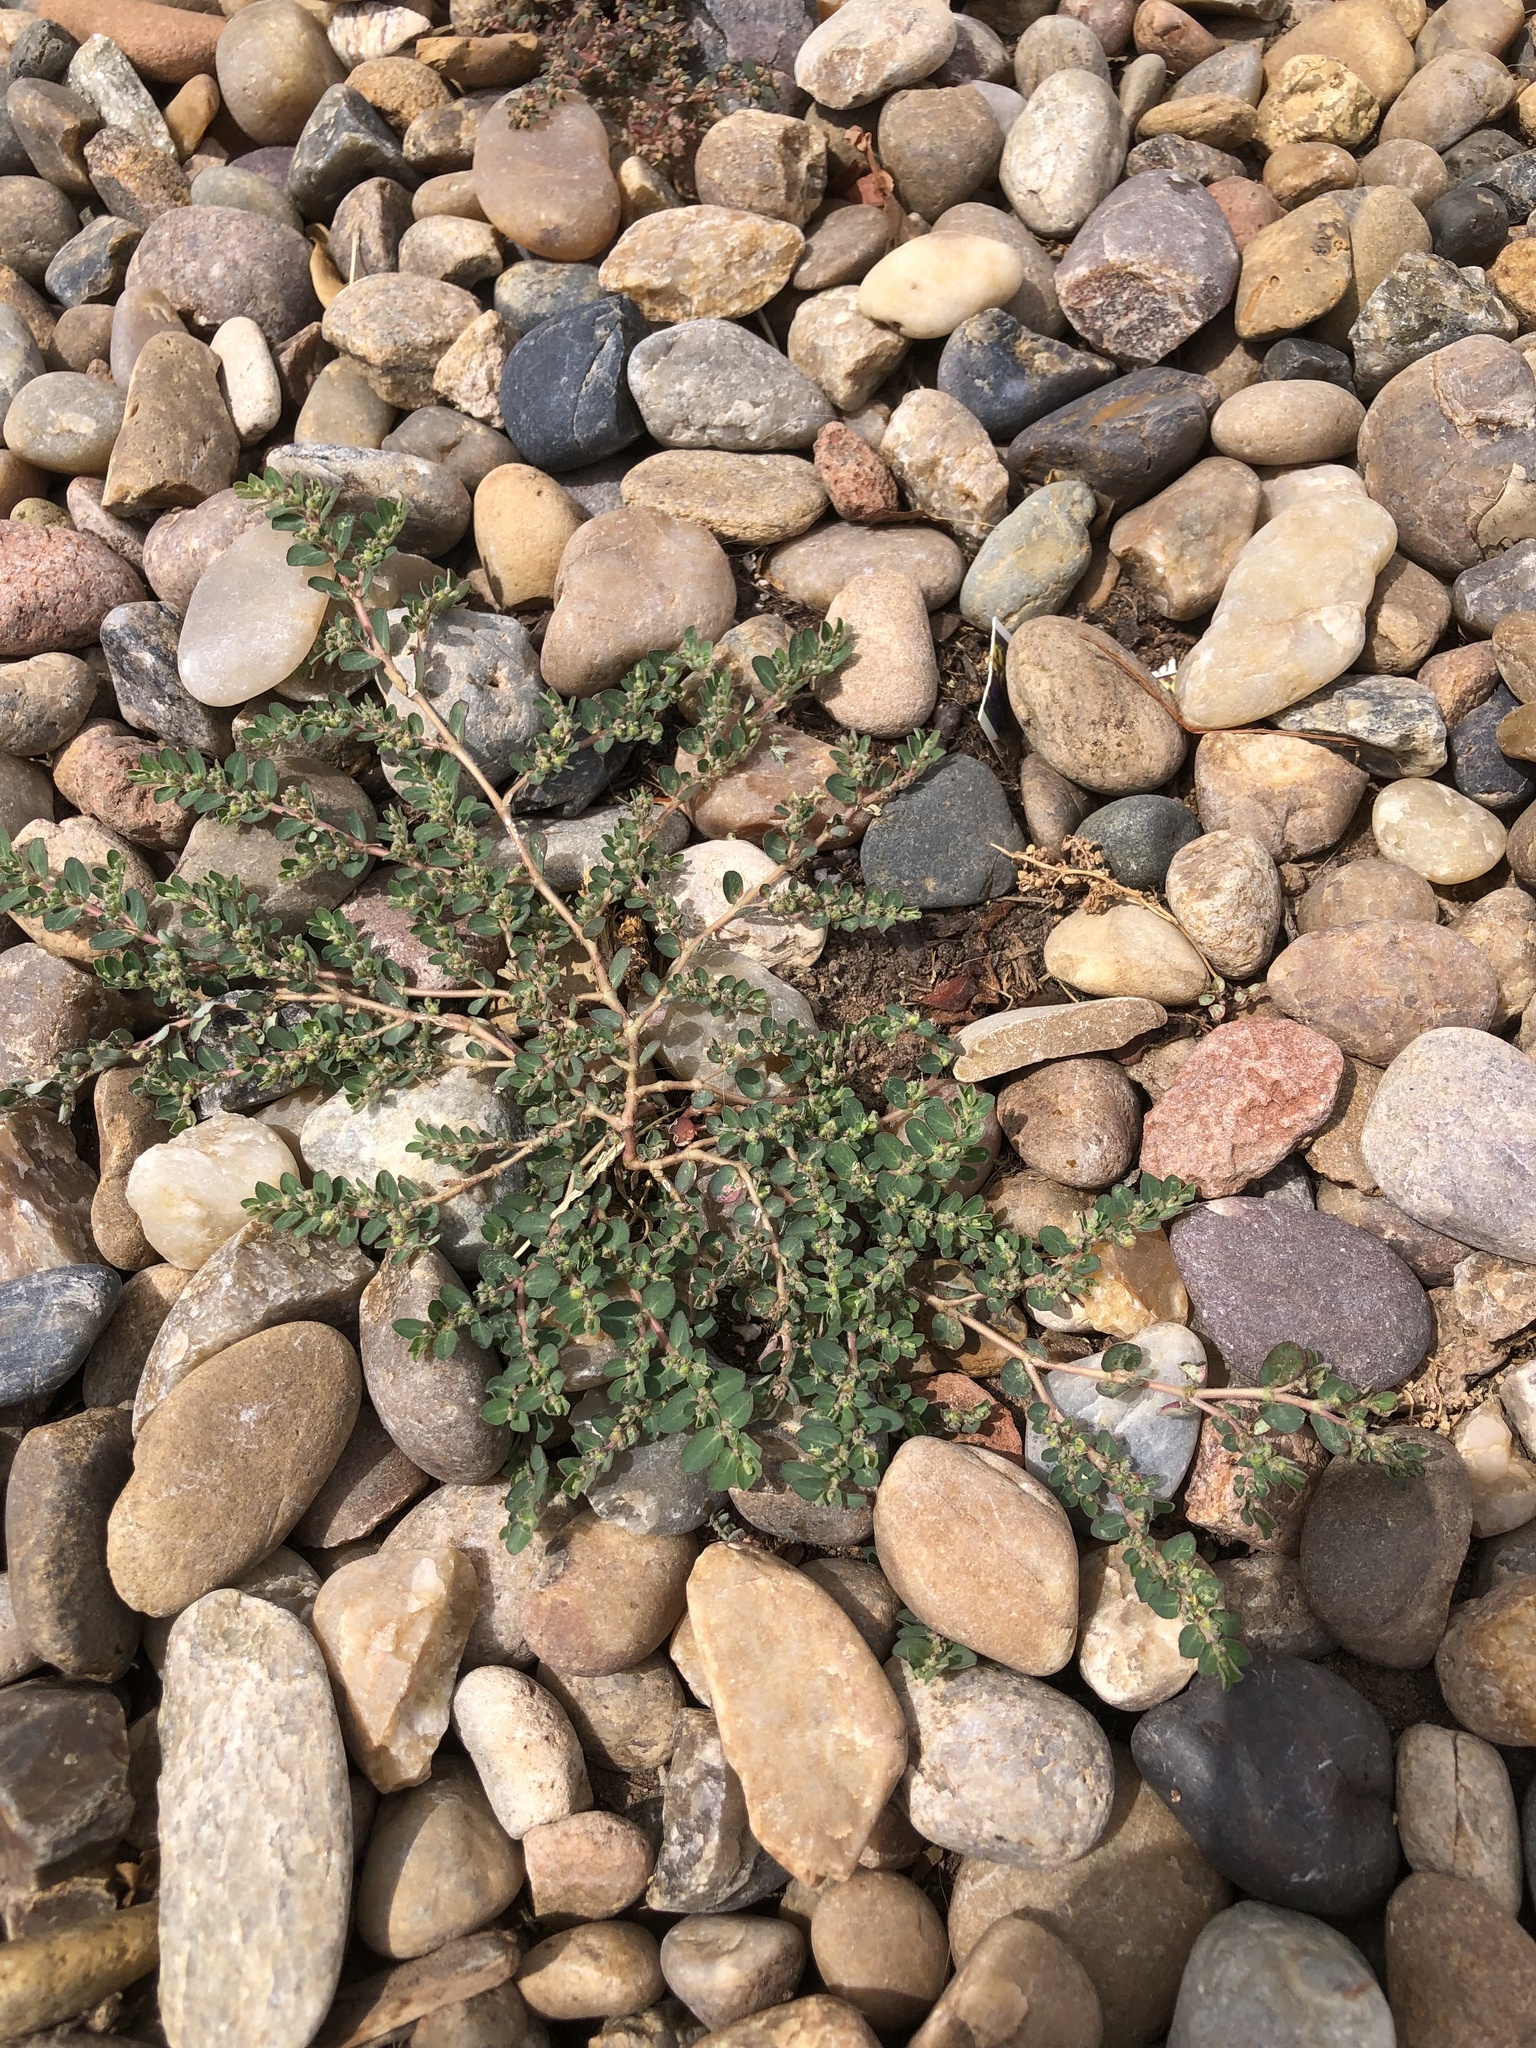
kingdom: Plantae
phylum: Tracheophyta
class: Magnoliopsida
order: Malpighiales
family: Euphorbiaceae
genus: Euphorbia
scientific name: Euphorbia prostrata
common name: Prostrate sandmat
